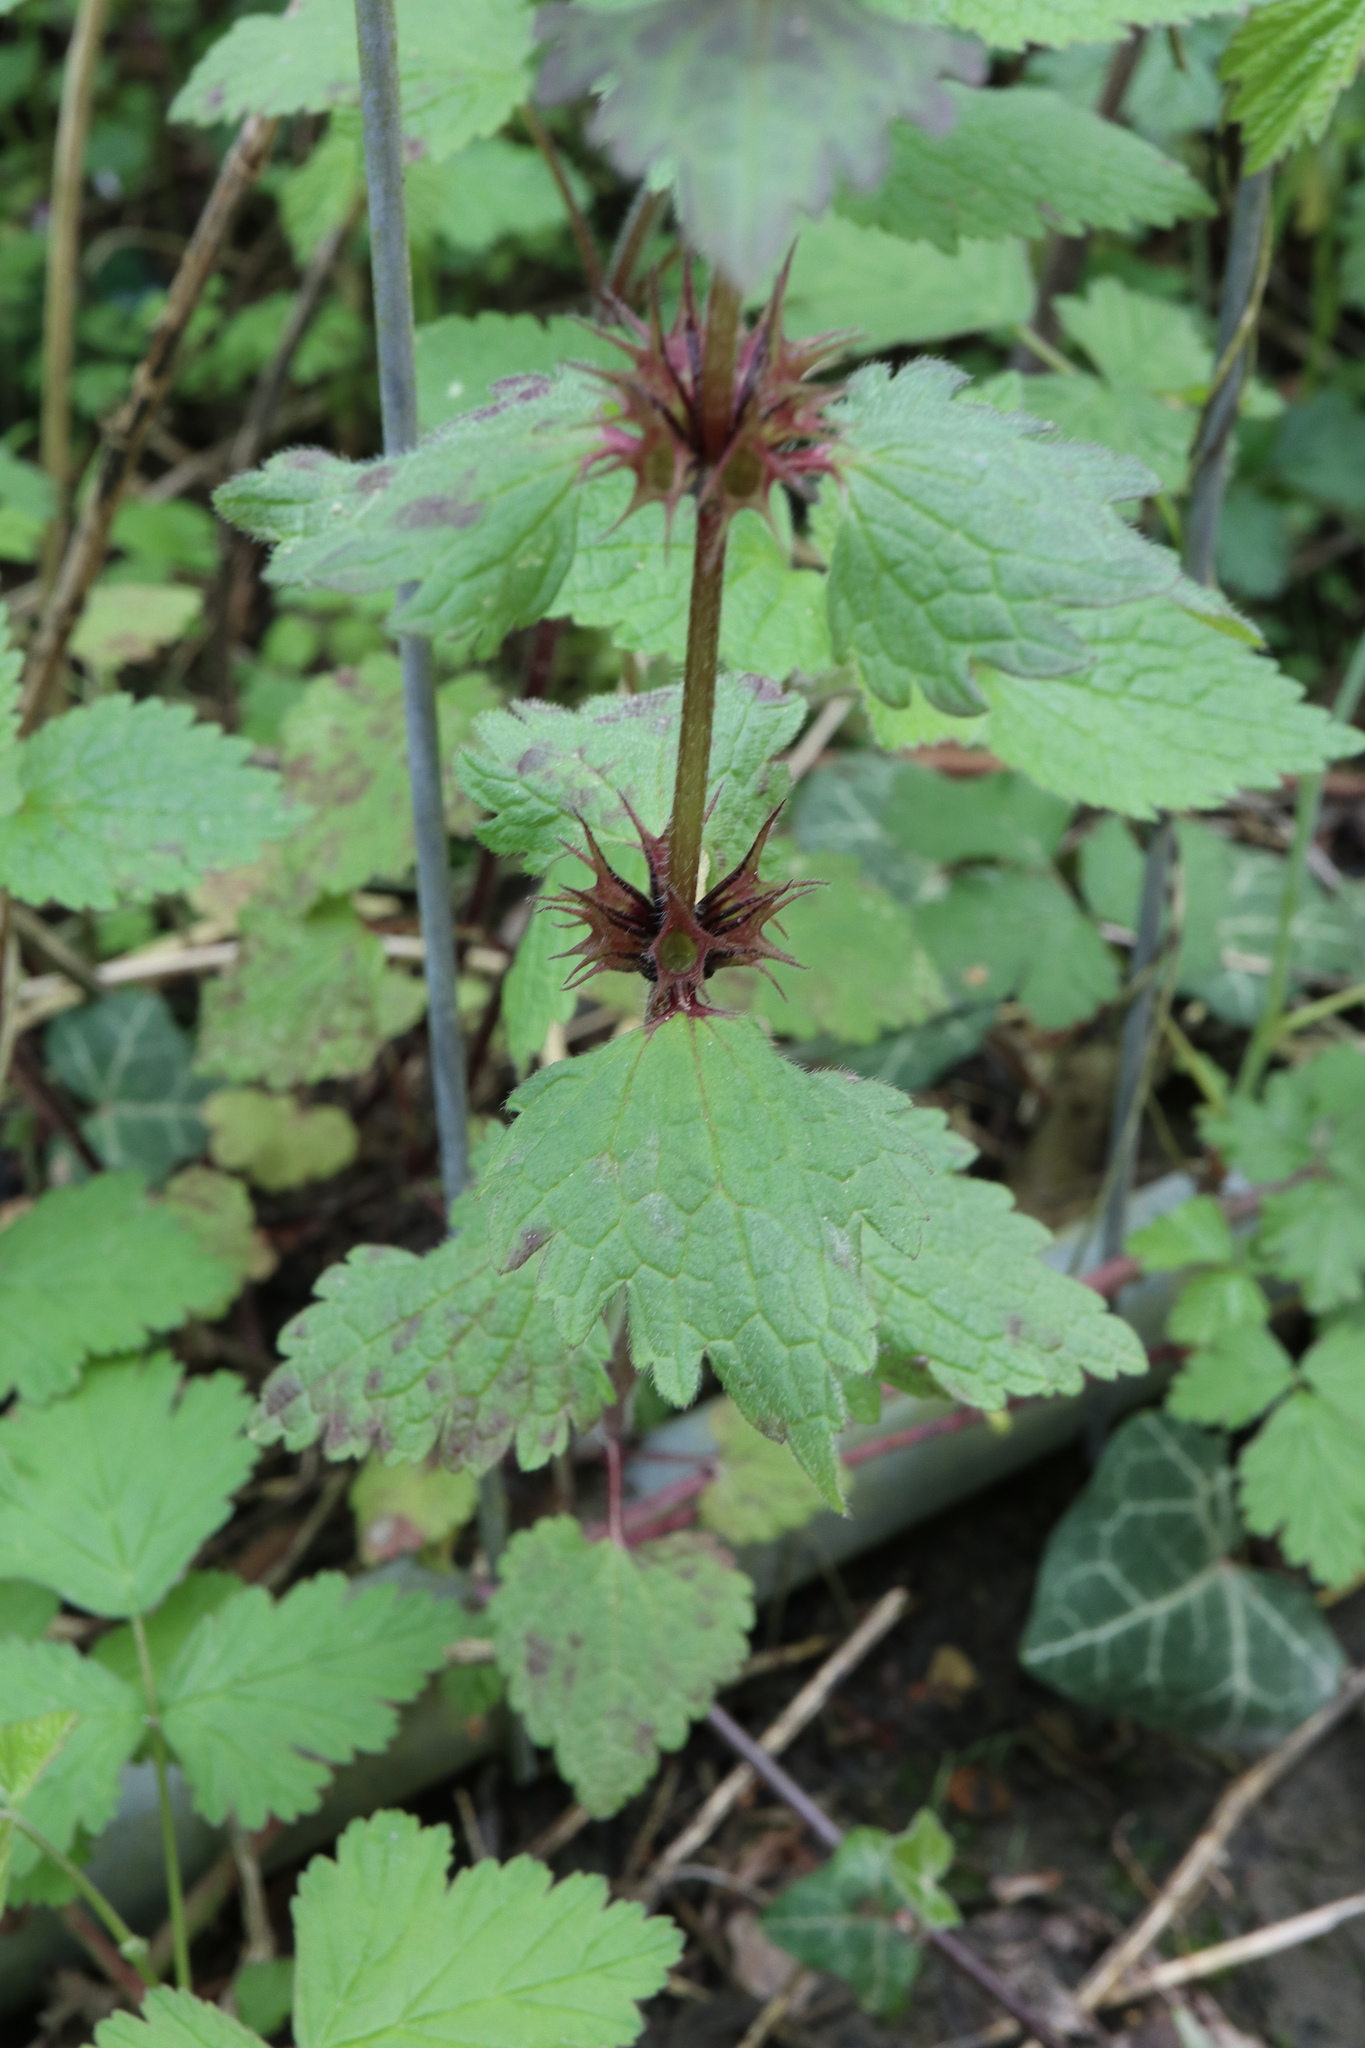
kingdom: Plantae
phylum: Tracheophyta
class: Magnoliopsida
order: Lamiales
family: Lamiaceae
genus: Lamium
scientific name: Lamium maculatum
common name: Spotted dead-nettle
